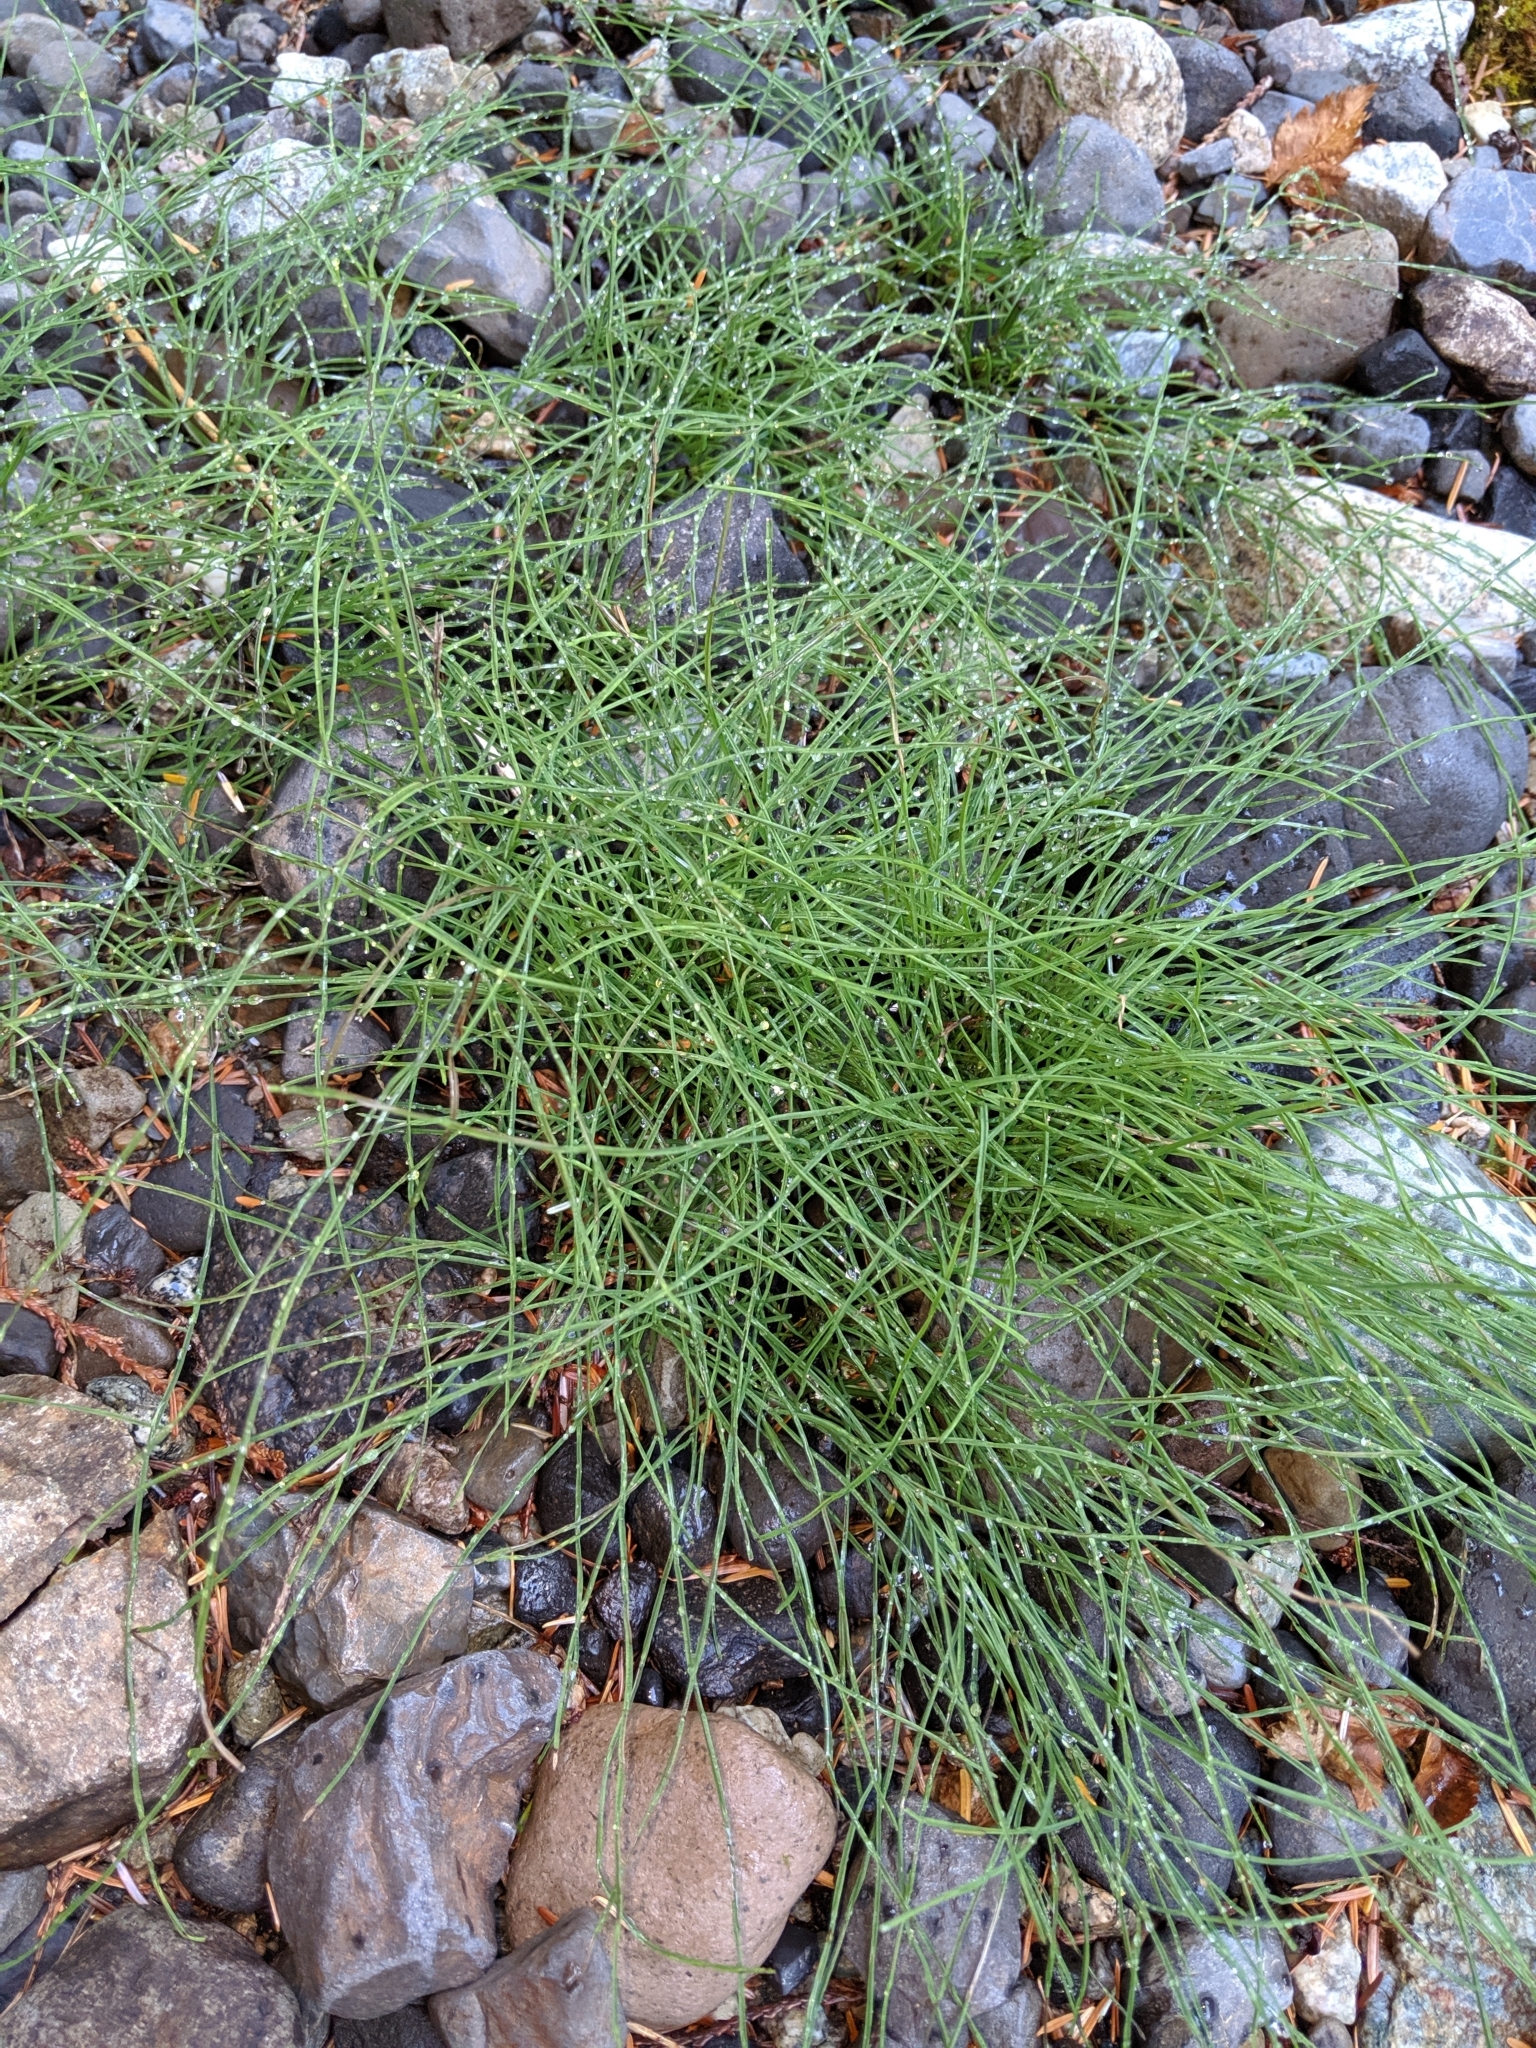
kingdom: Plantae
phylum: Tracheophyta
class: Polypodiopsida
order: Equisetales
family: Equisetaceae
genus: Equisetum
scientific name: Equisetum arvense
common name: Field horsetail
